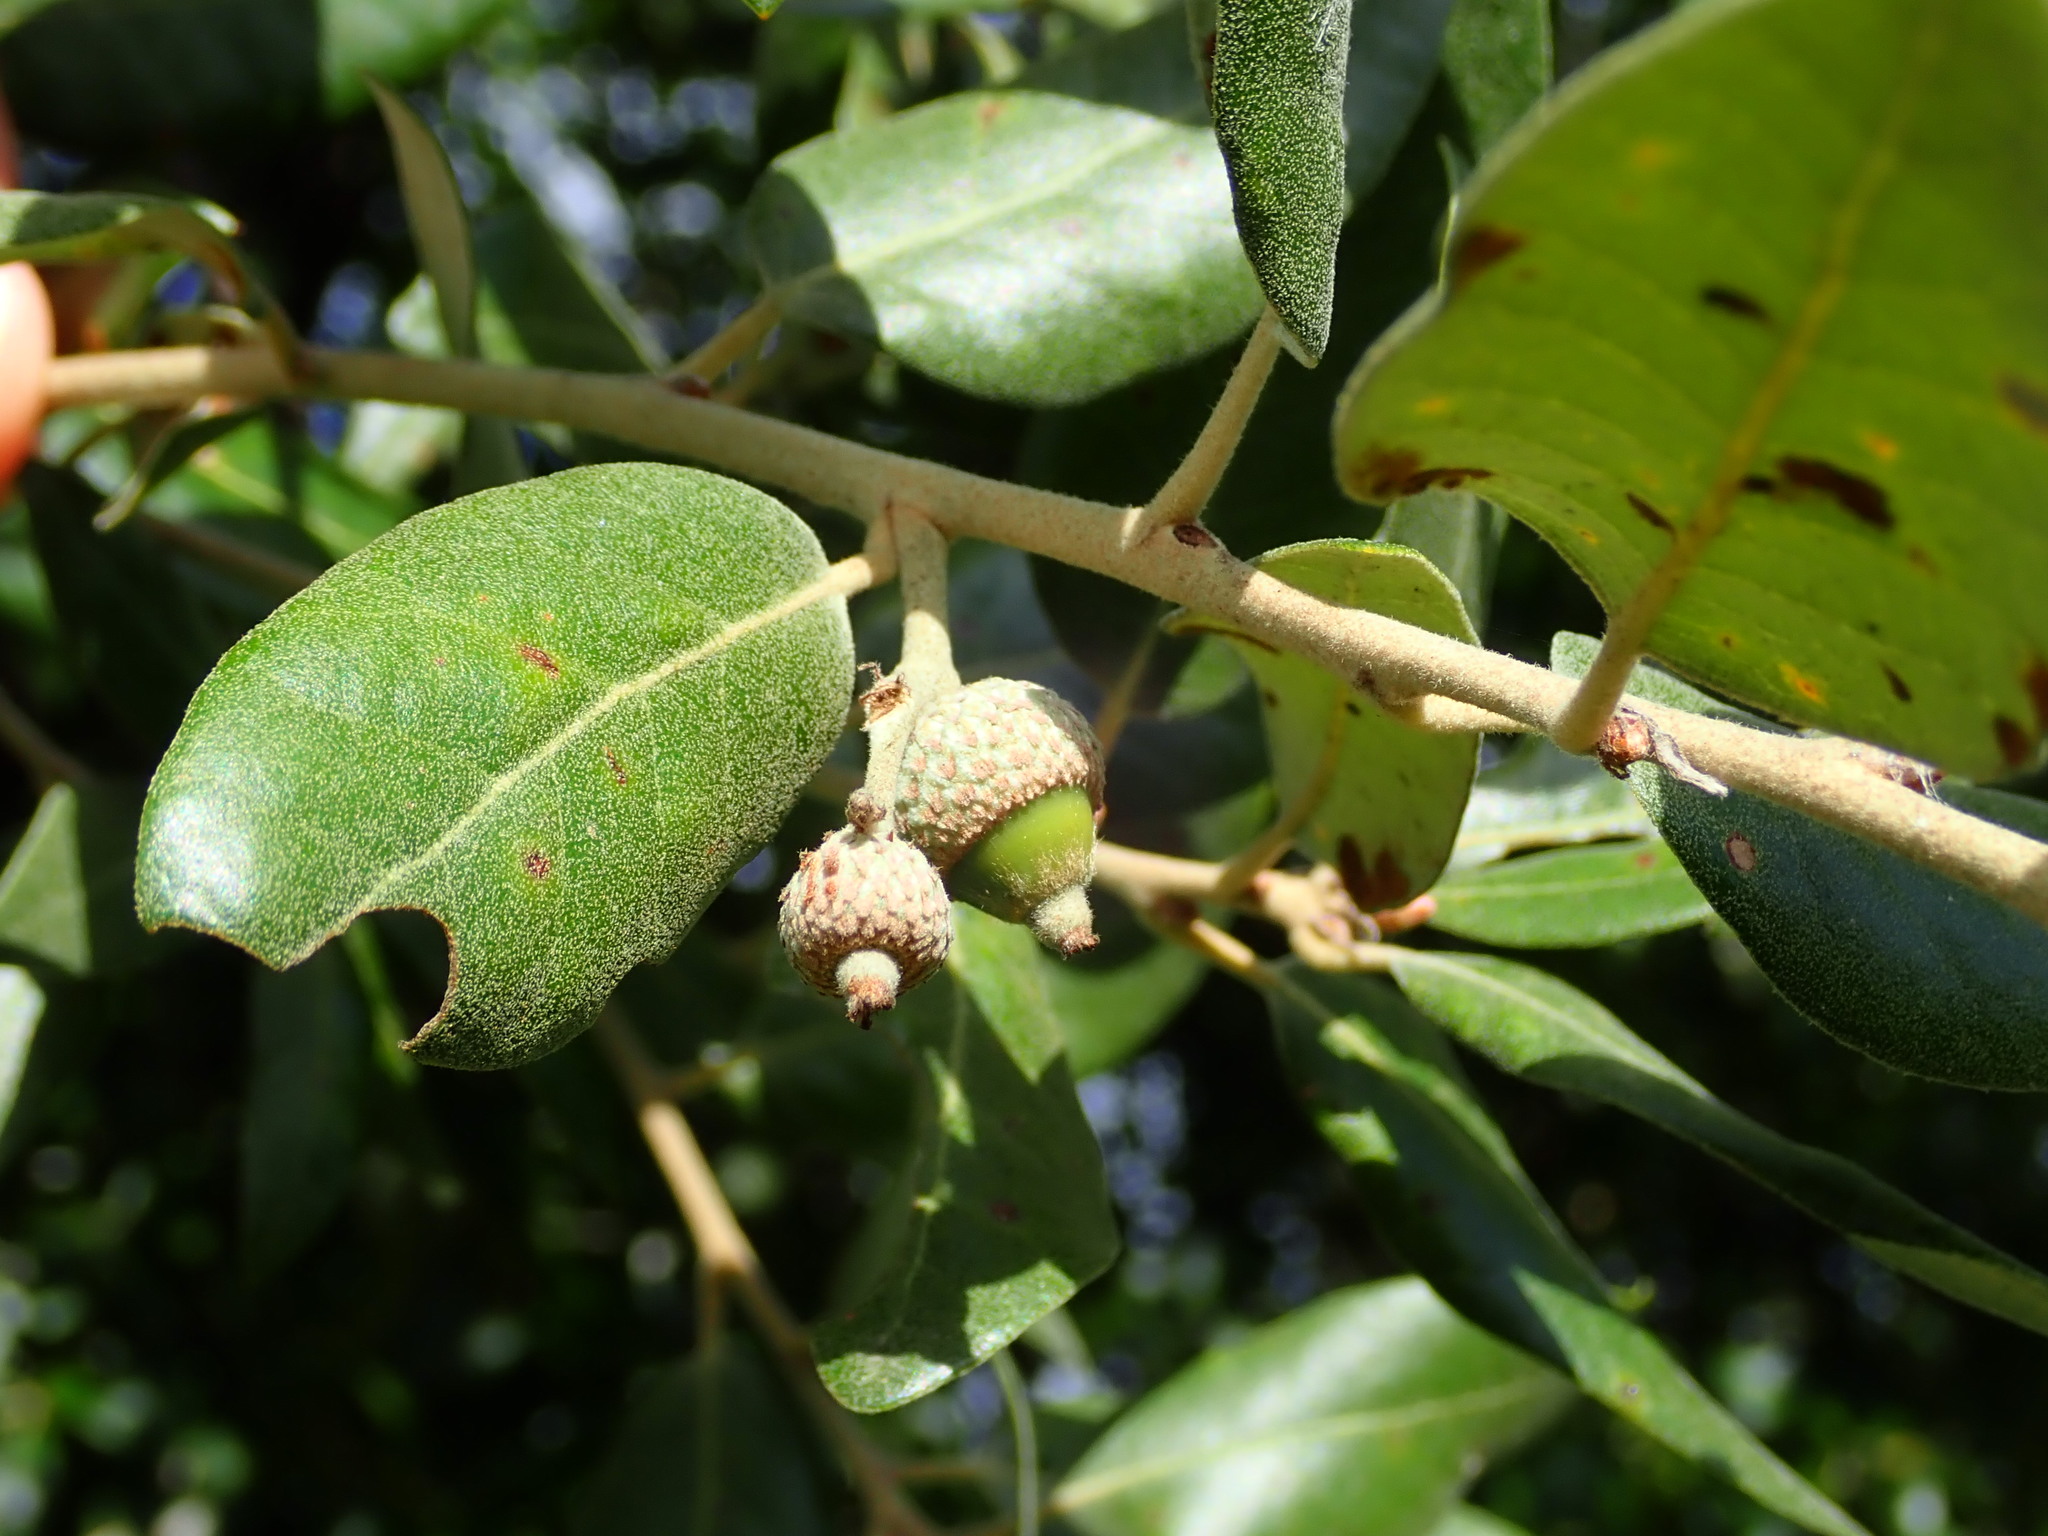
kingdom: Plantae
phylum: Tracheophyta
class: Magnoliopsida
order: Fagales
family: Fagaceae
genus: Quercus
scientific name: Quercus ilex
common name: Evergreen oak
